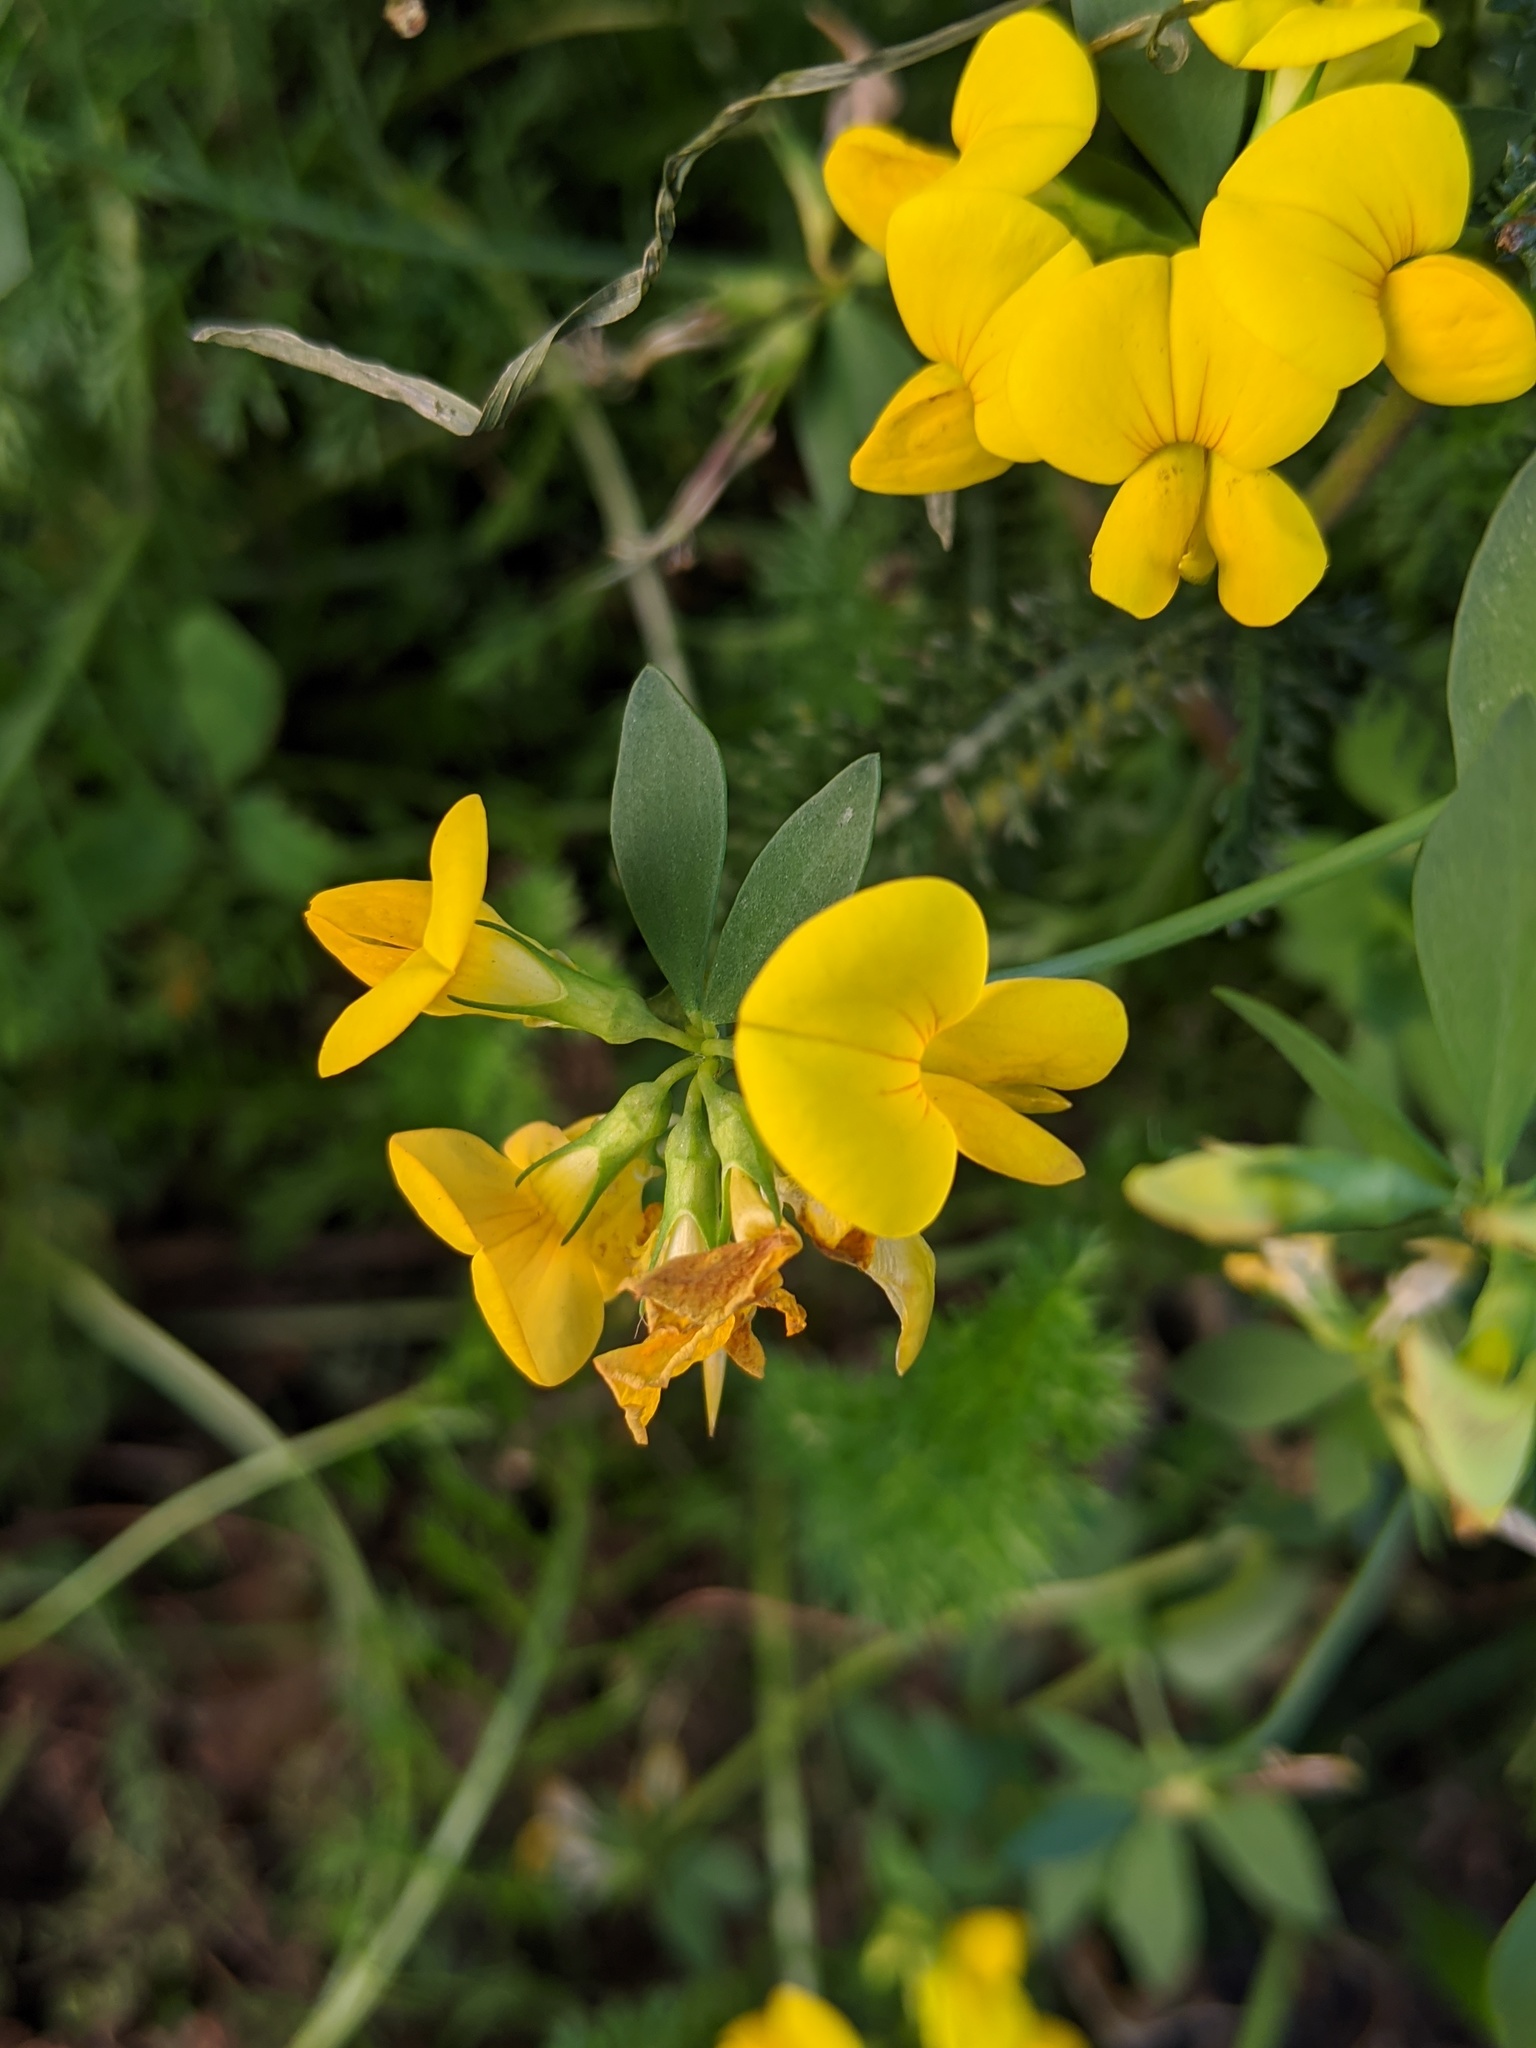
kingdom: Plantae
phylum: Tracheophyta
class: Magnoliopsida
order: Fabales
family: Fabaceae
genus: Lotus
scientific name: Lotus corniculatus
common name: Common bird's-foot-trefoil
